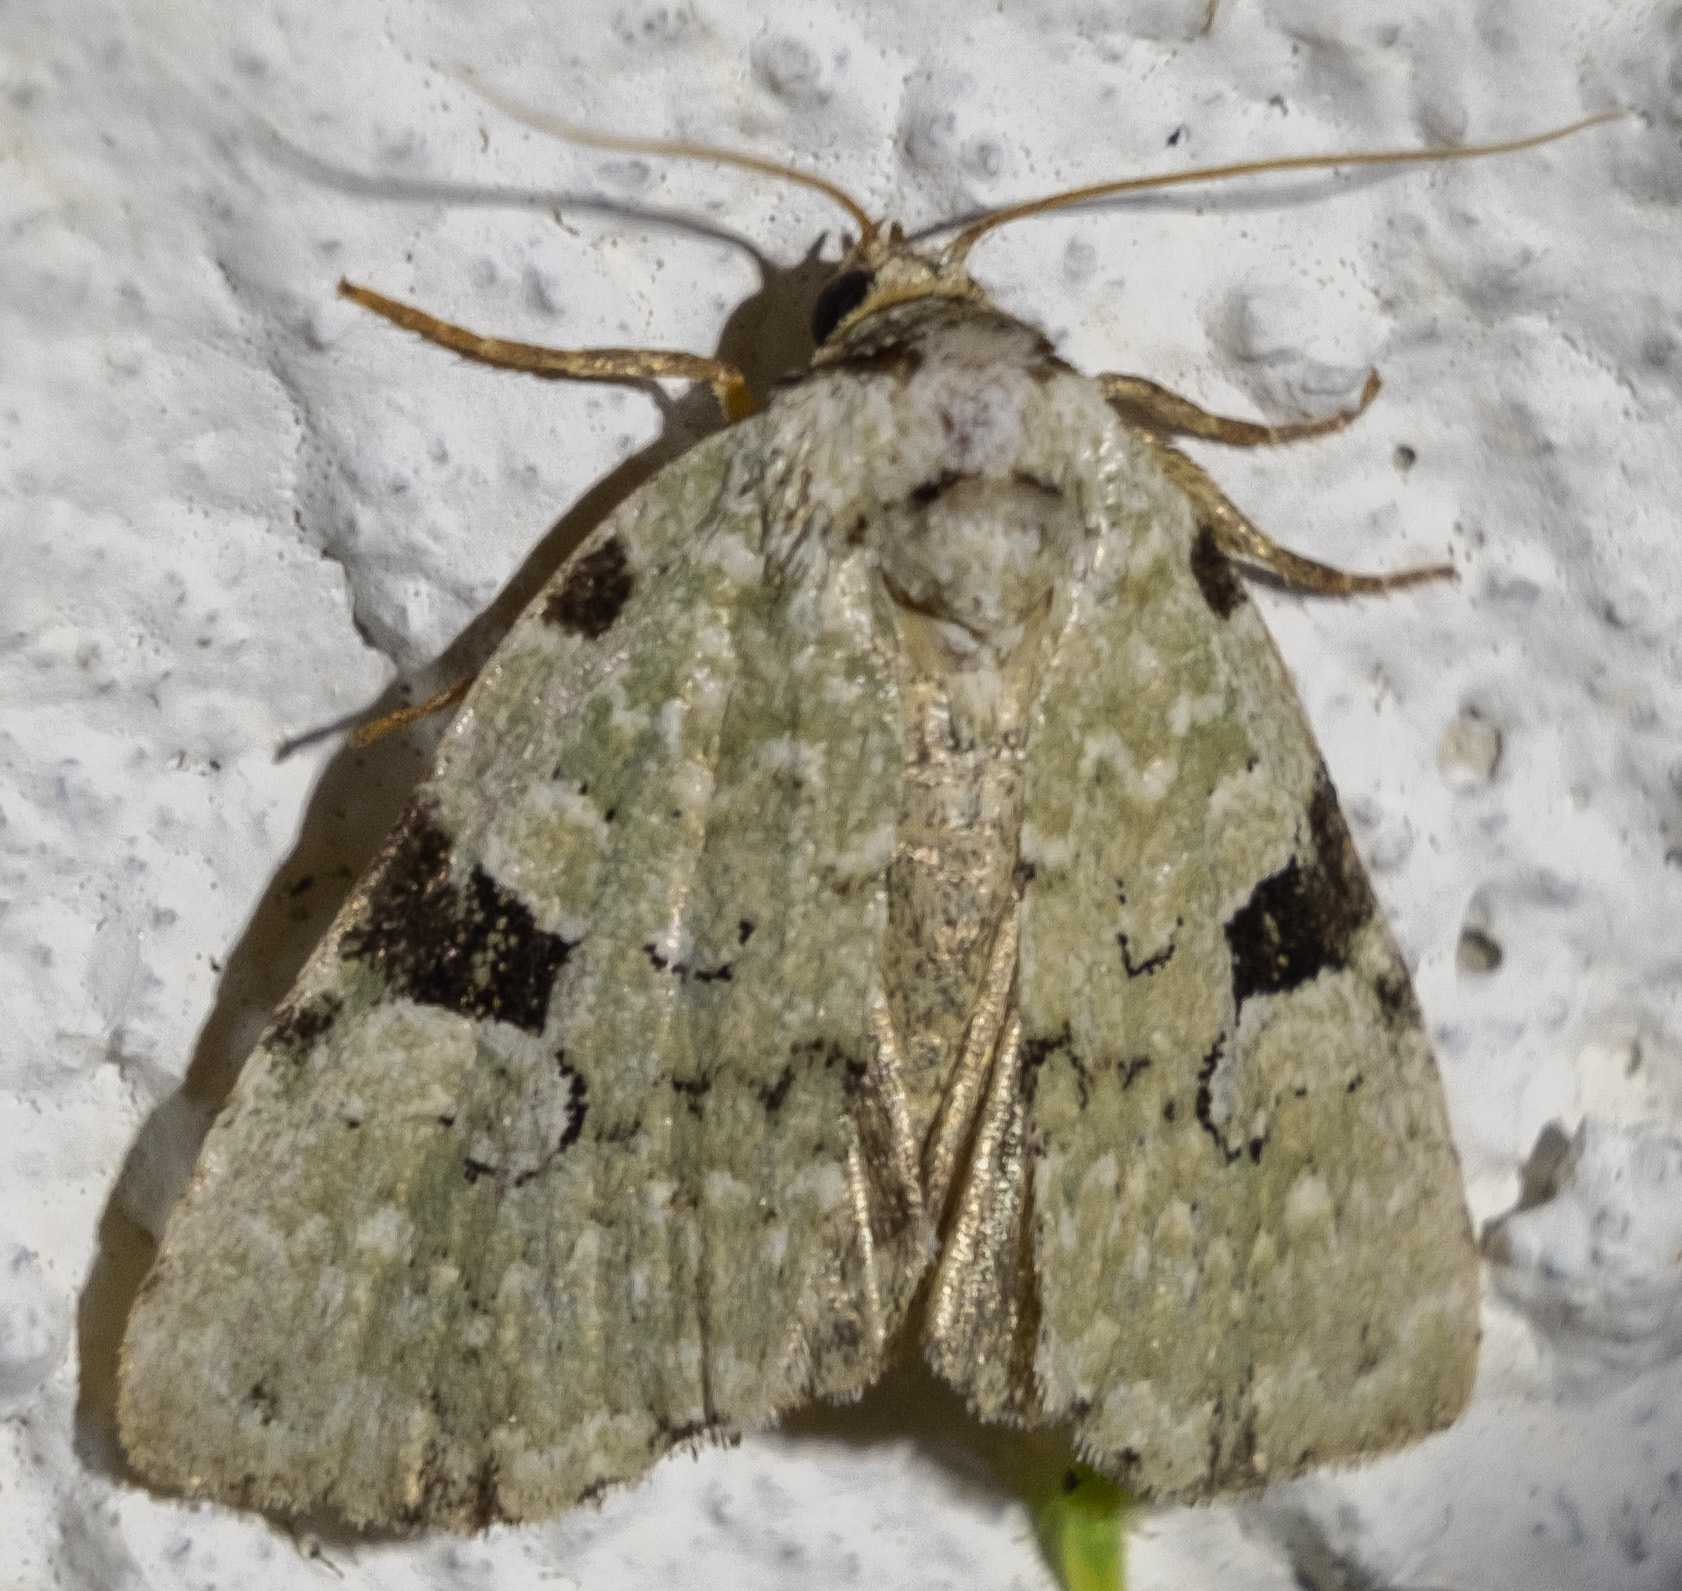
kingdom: Animalia
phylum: Arthropoda
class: Insecta
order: Lepidoptera
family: Noctuidae
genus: Leuconycta
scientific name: Leuconycta diphteroides
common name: Green leuconycta moth
